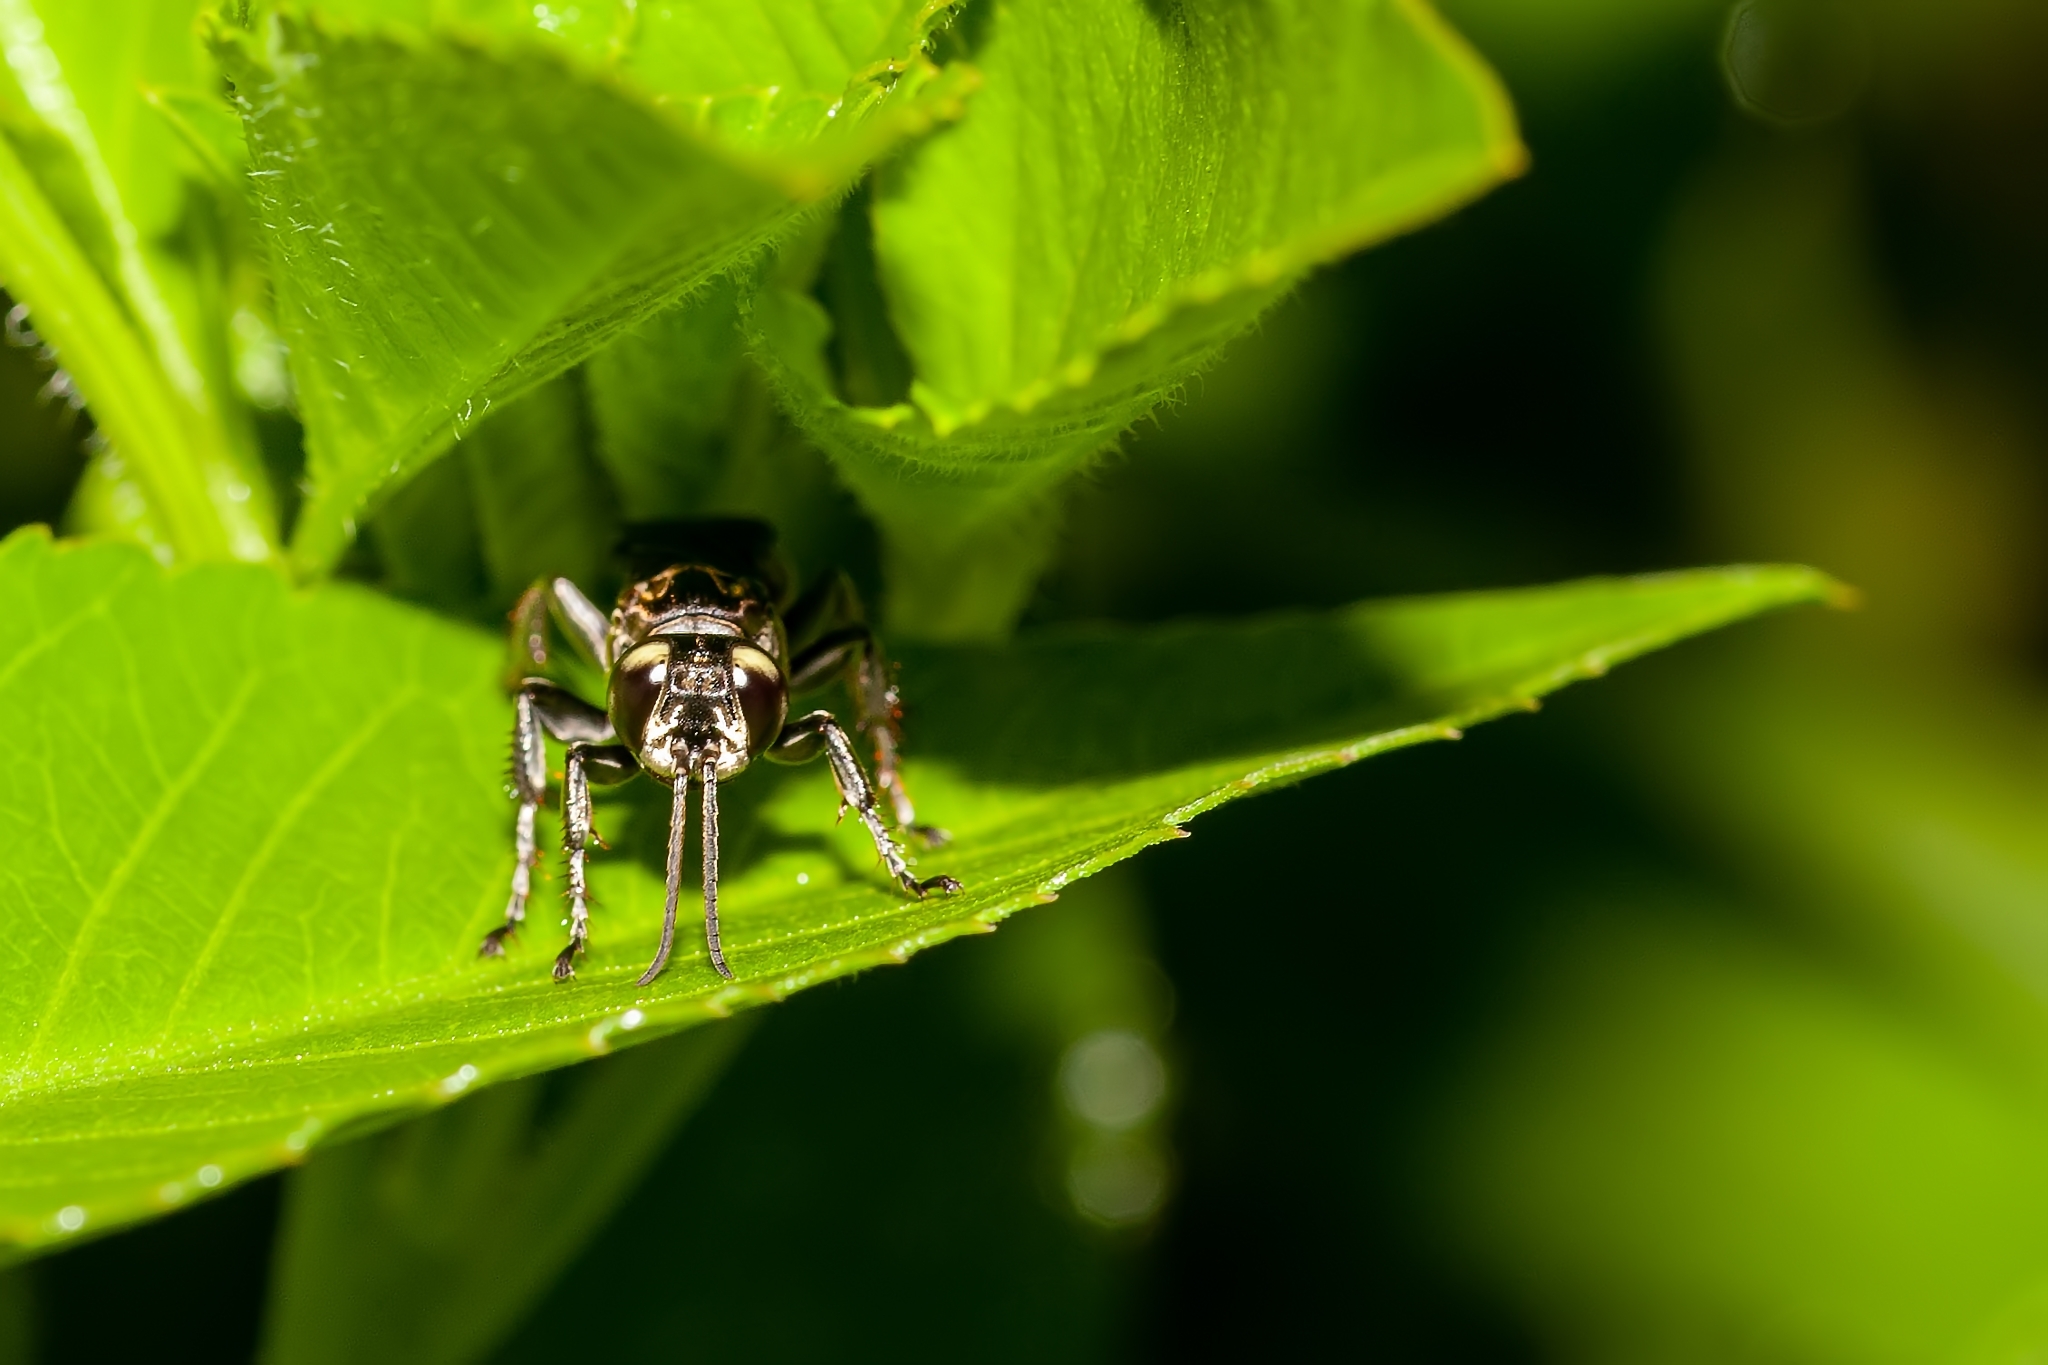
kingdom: Animalia
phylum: Arthropoda
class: Insecta
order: Hymenoptera
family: Crabronidae
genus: Larra
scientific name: Larra bicolor
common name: Wasp
